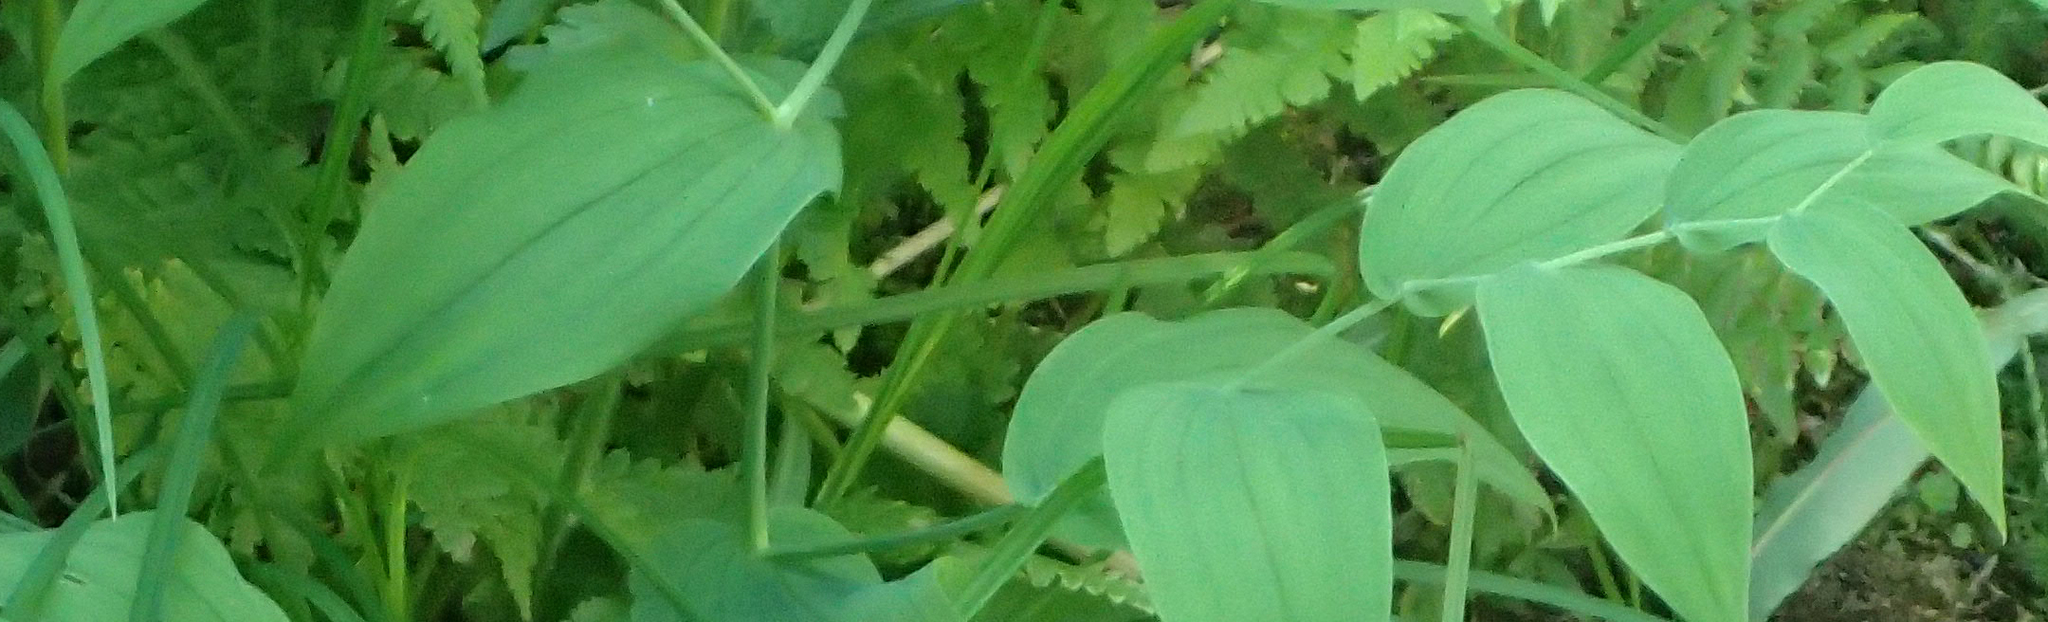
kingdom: Plantae
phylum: Tracheophyta
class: Liliopsida
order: Liliales
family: Liliaceae
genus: Streptopus
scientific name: Streptopus amplexifolius
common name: Clasp twisted stalk
